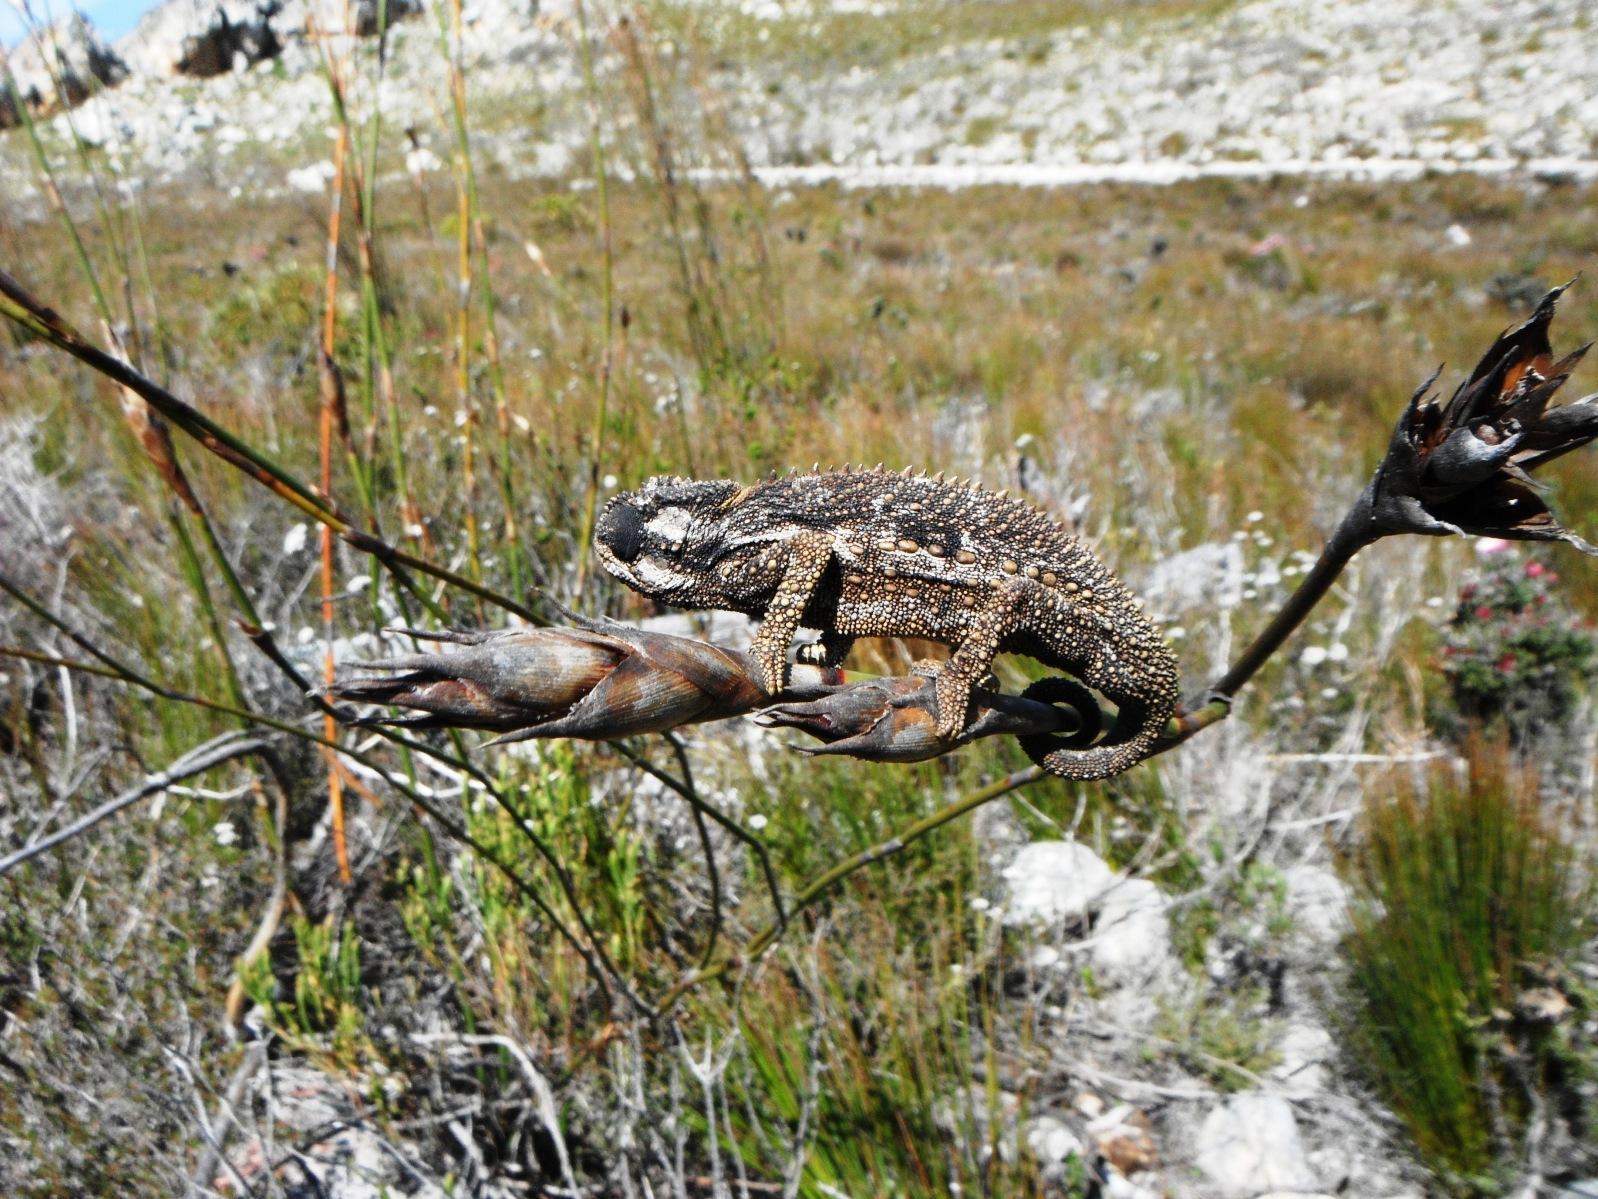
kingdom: Animalia
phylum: Chordata
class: Squamata
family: Chamaeleonidae
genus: Bradypodion
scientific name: Bradypodion gutturale
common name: Little karoo dwarf chameleon
